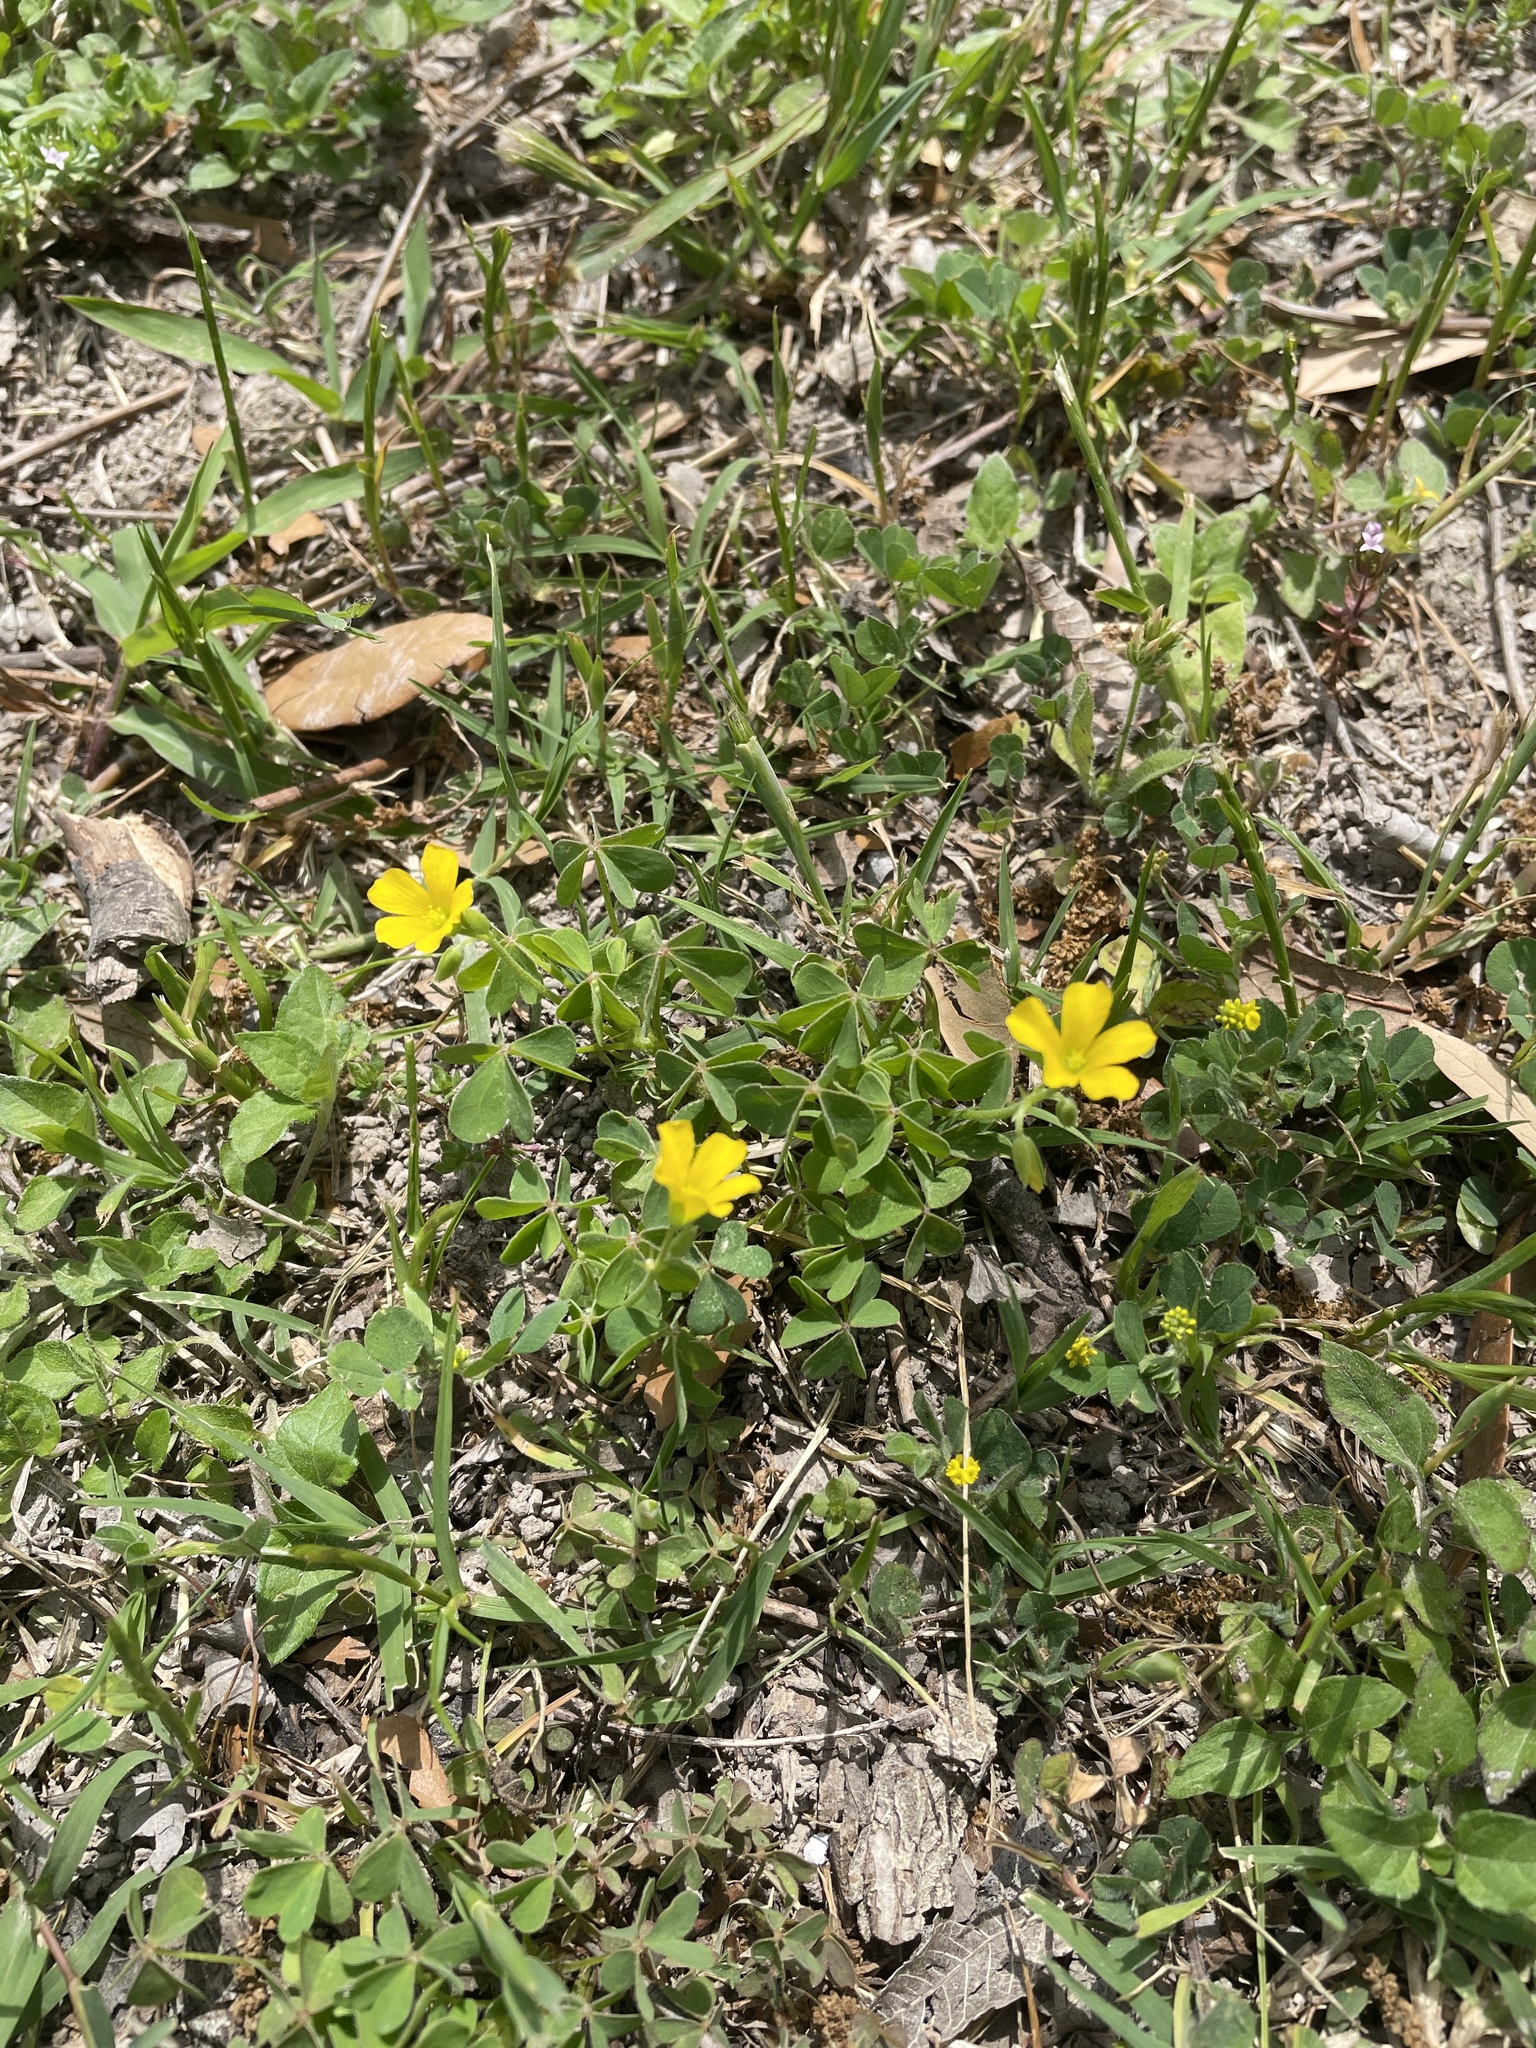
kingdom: Plantae
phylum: Tracheophyta
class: Magnoliopsida
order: Oxalidales
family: Oxalidaceae
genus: Oxalis
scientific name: Oxalis dillenii
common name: Sussex yellow-sorrel
